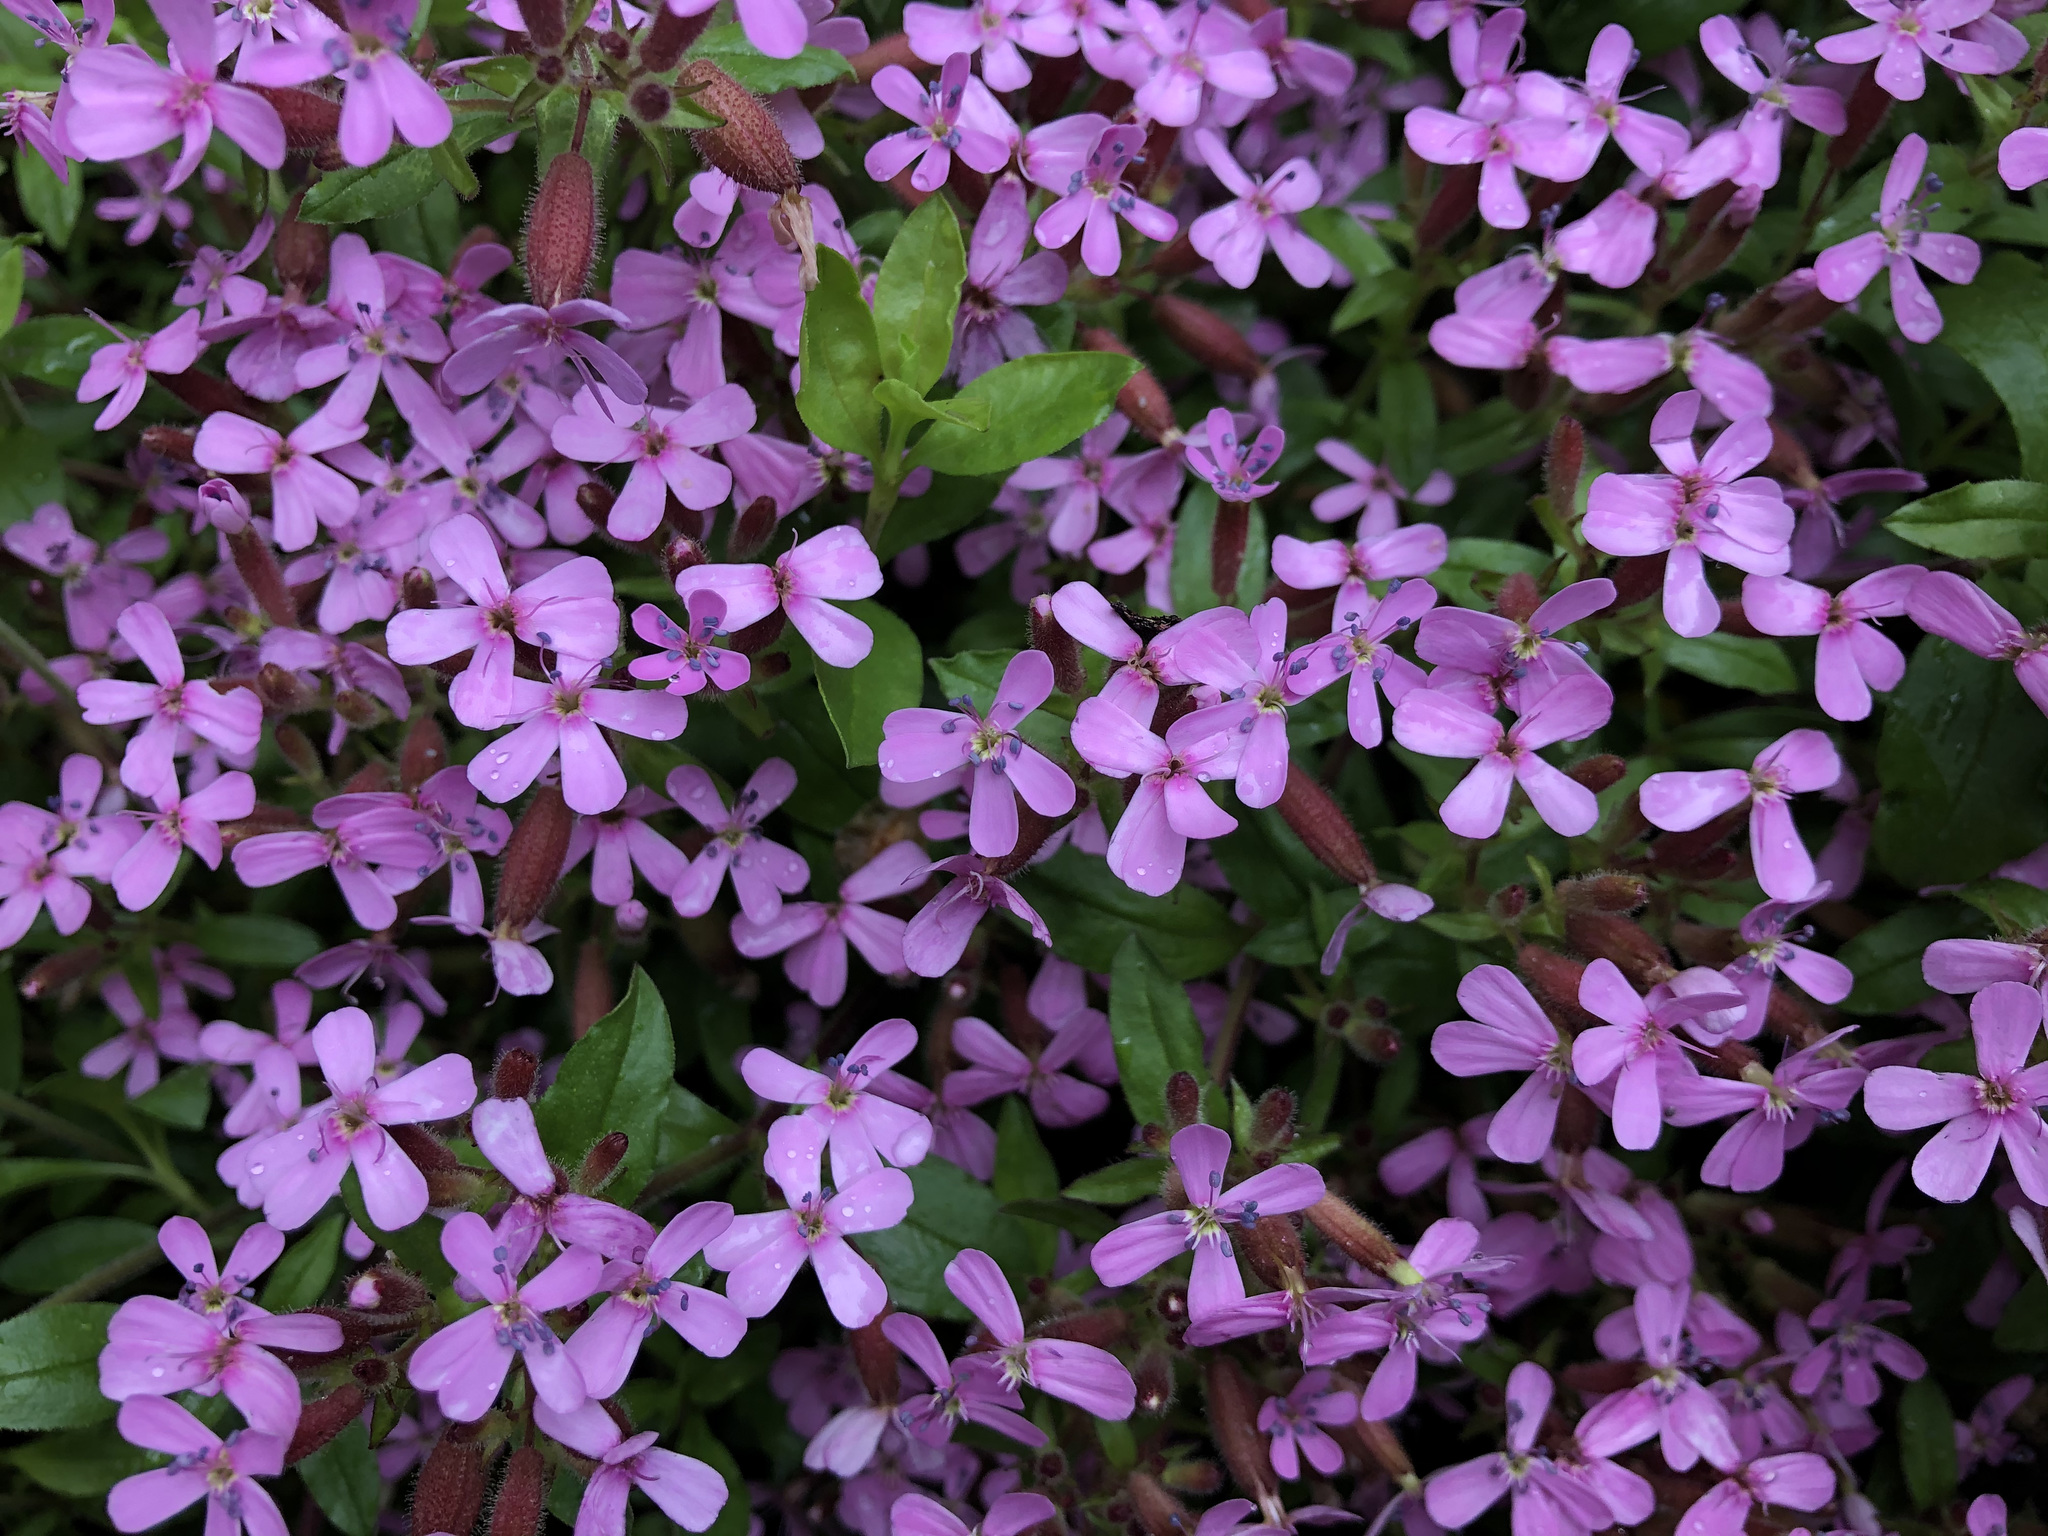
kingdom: Plantae
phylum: Tracheophyta
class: Magnoliopsida
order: Caryophyllales
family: Caryophyllaceae
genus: Saponaria
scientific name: Saponaria ocymoides
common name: Rock soapwort
